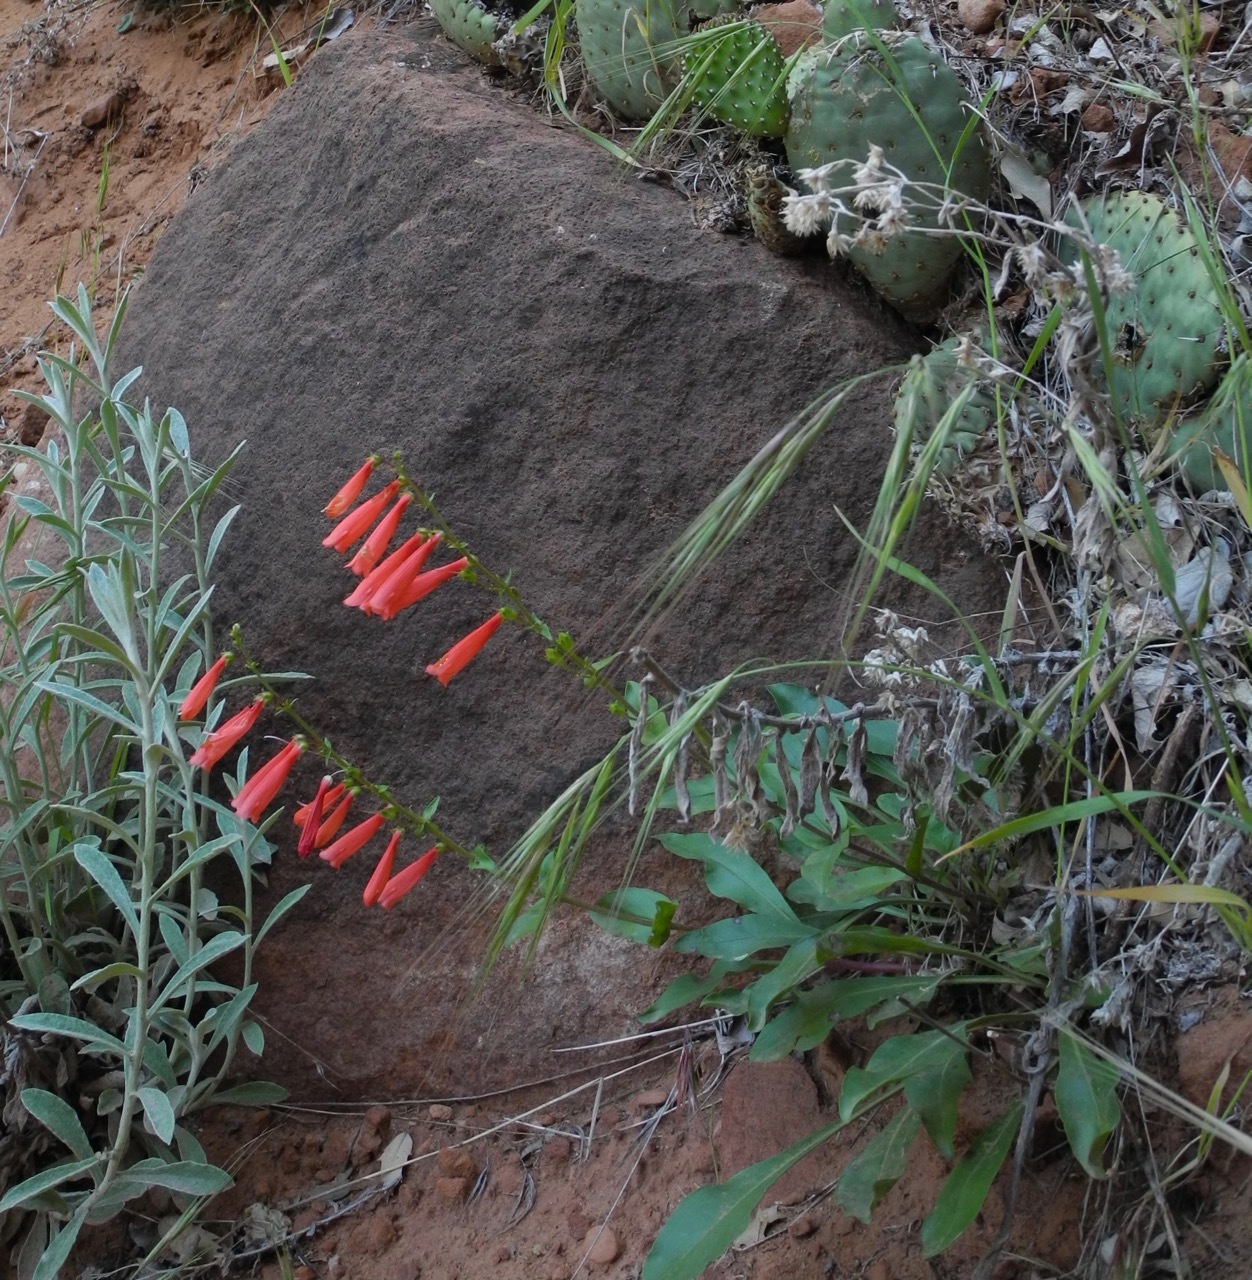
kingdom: Plantae
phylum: Tracheophyta
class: Magnoliopsida
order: Lamiales
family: Plantaginaceae
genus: Penstemon
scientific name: Penstemon eatonii
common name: Eaton's penstemon
